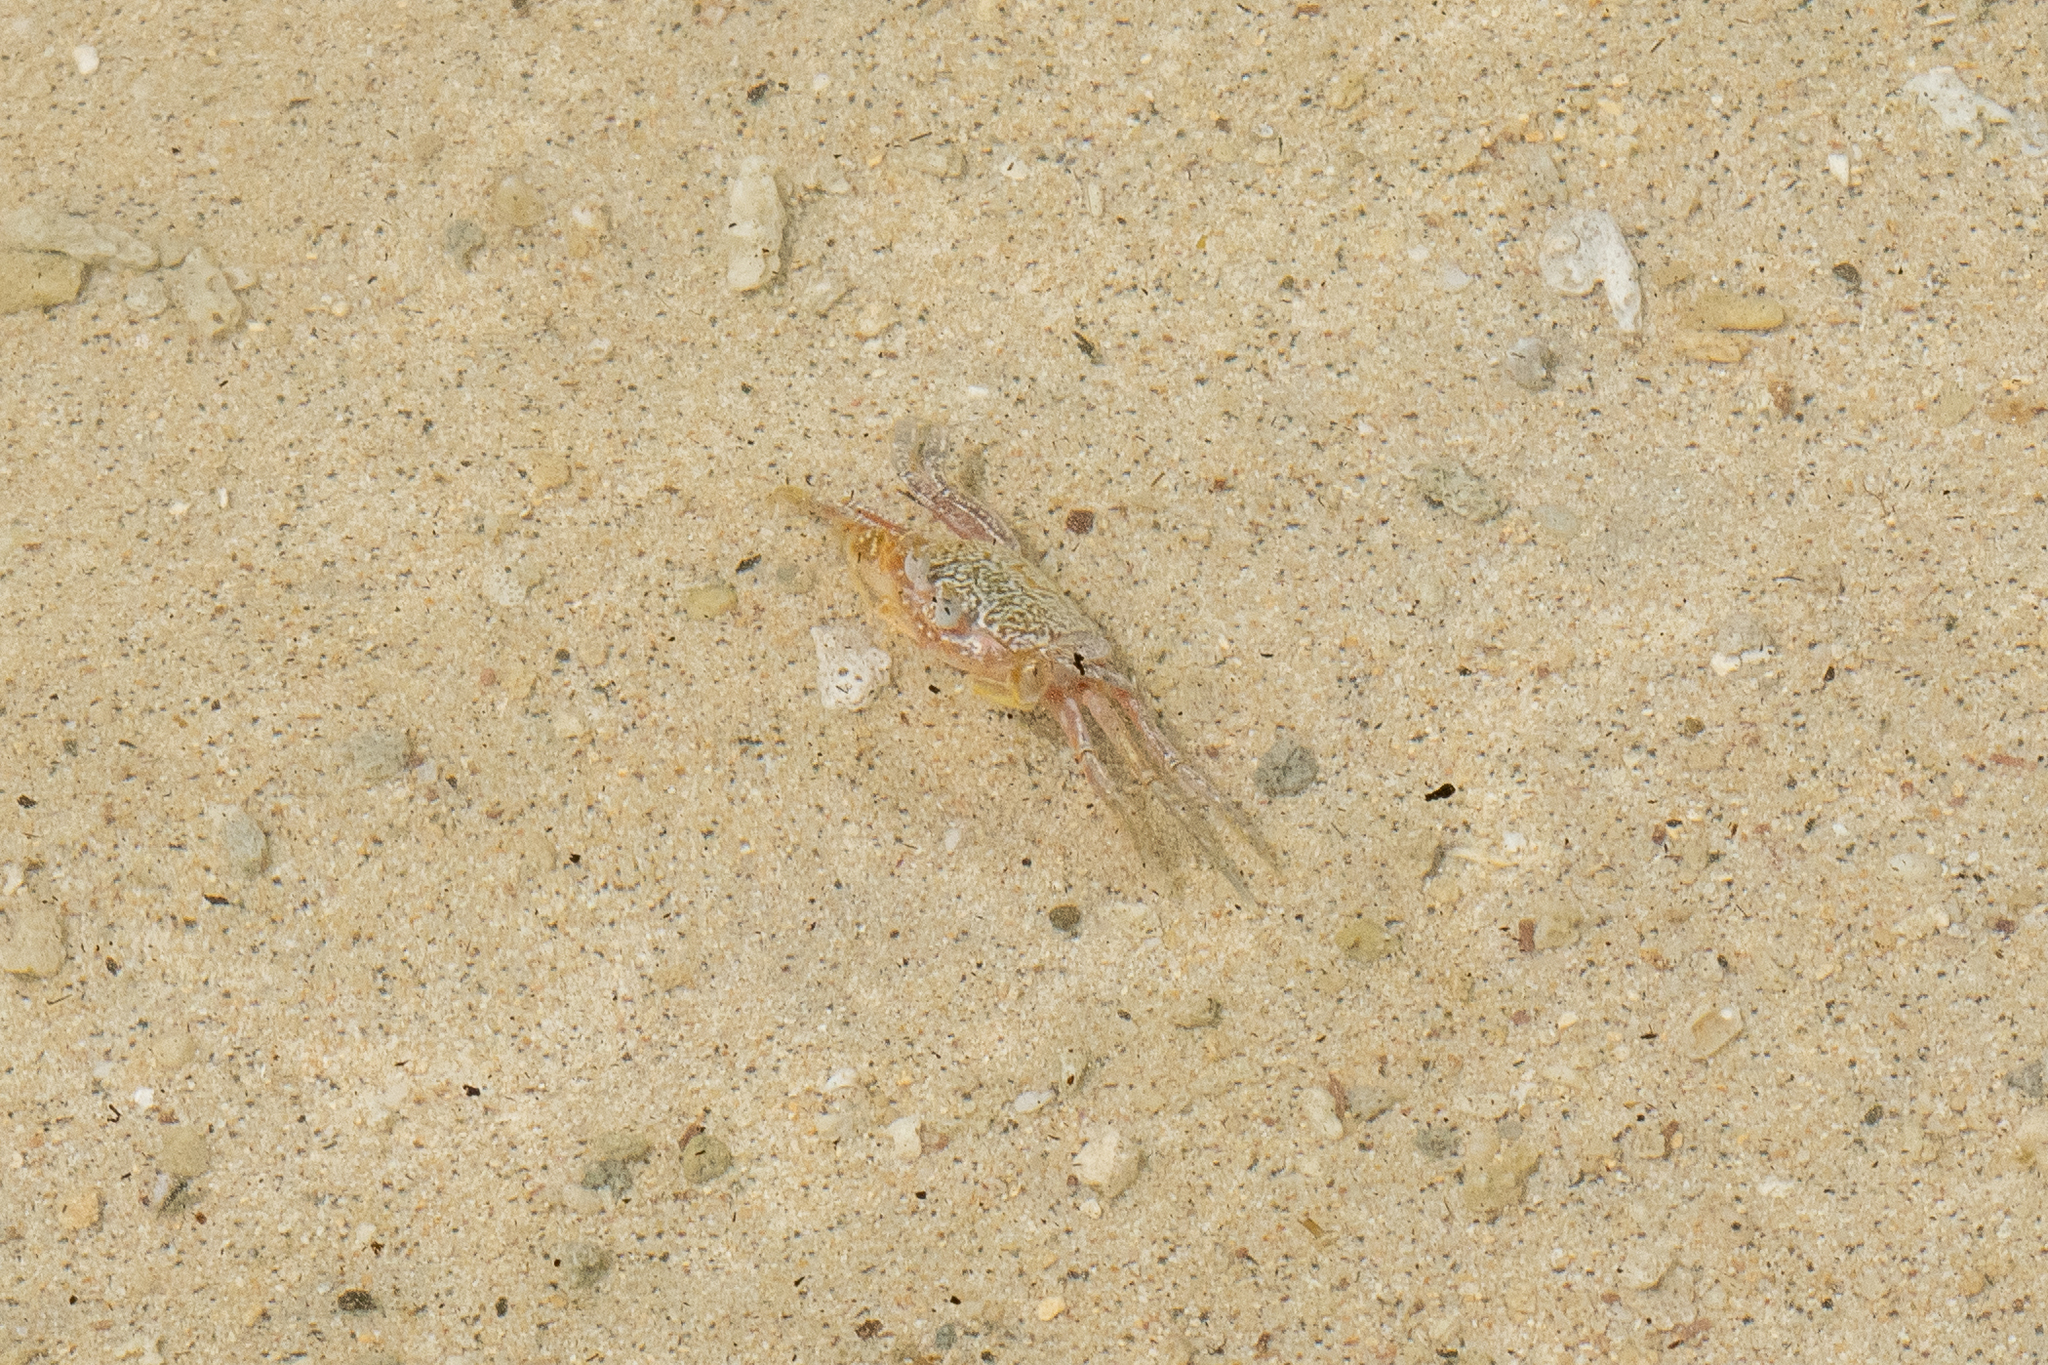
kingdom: Animalia
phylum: Arthropoda
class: Malacostraca
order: Decapoda
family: Ocypodidae
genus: Ocypode
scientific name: Ocypode gaudichaudii
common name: Pacific ghost crab
